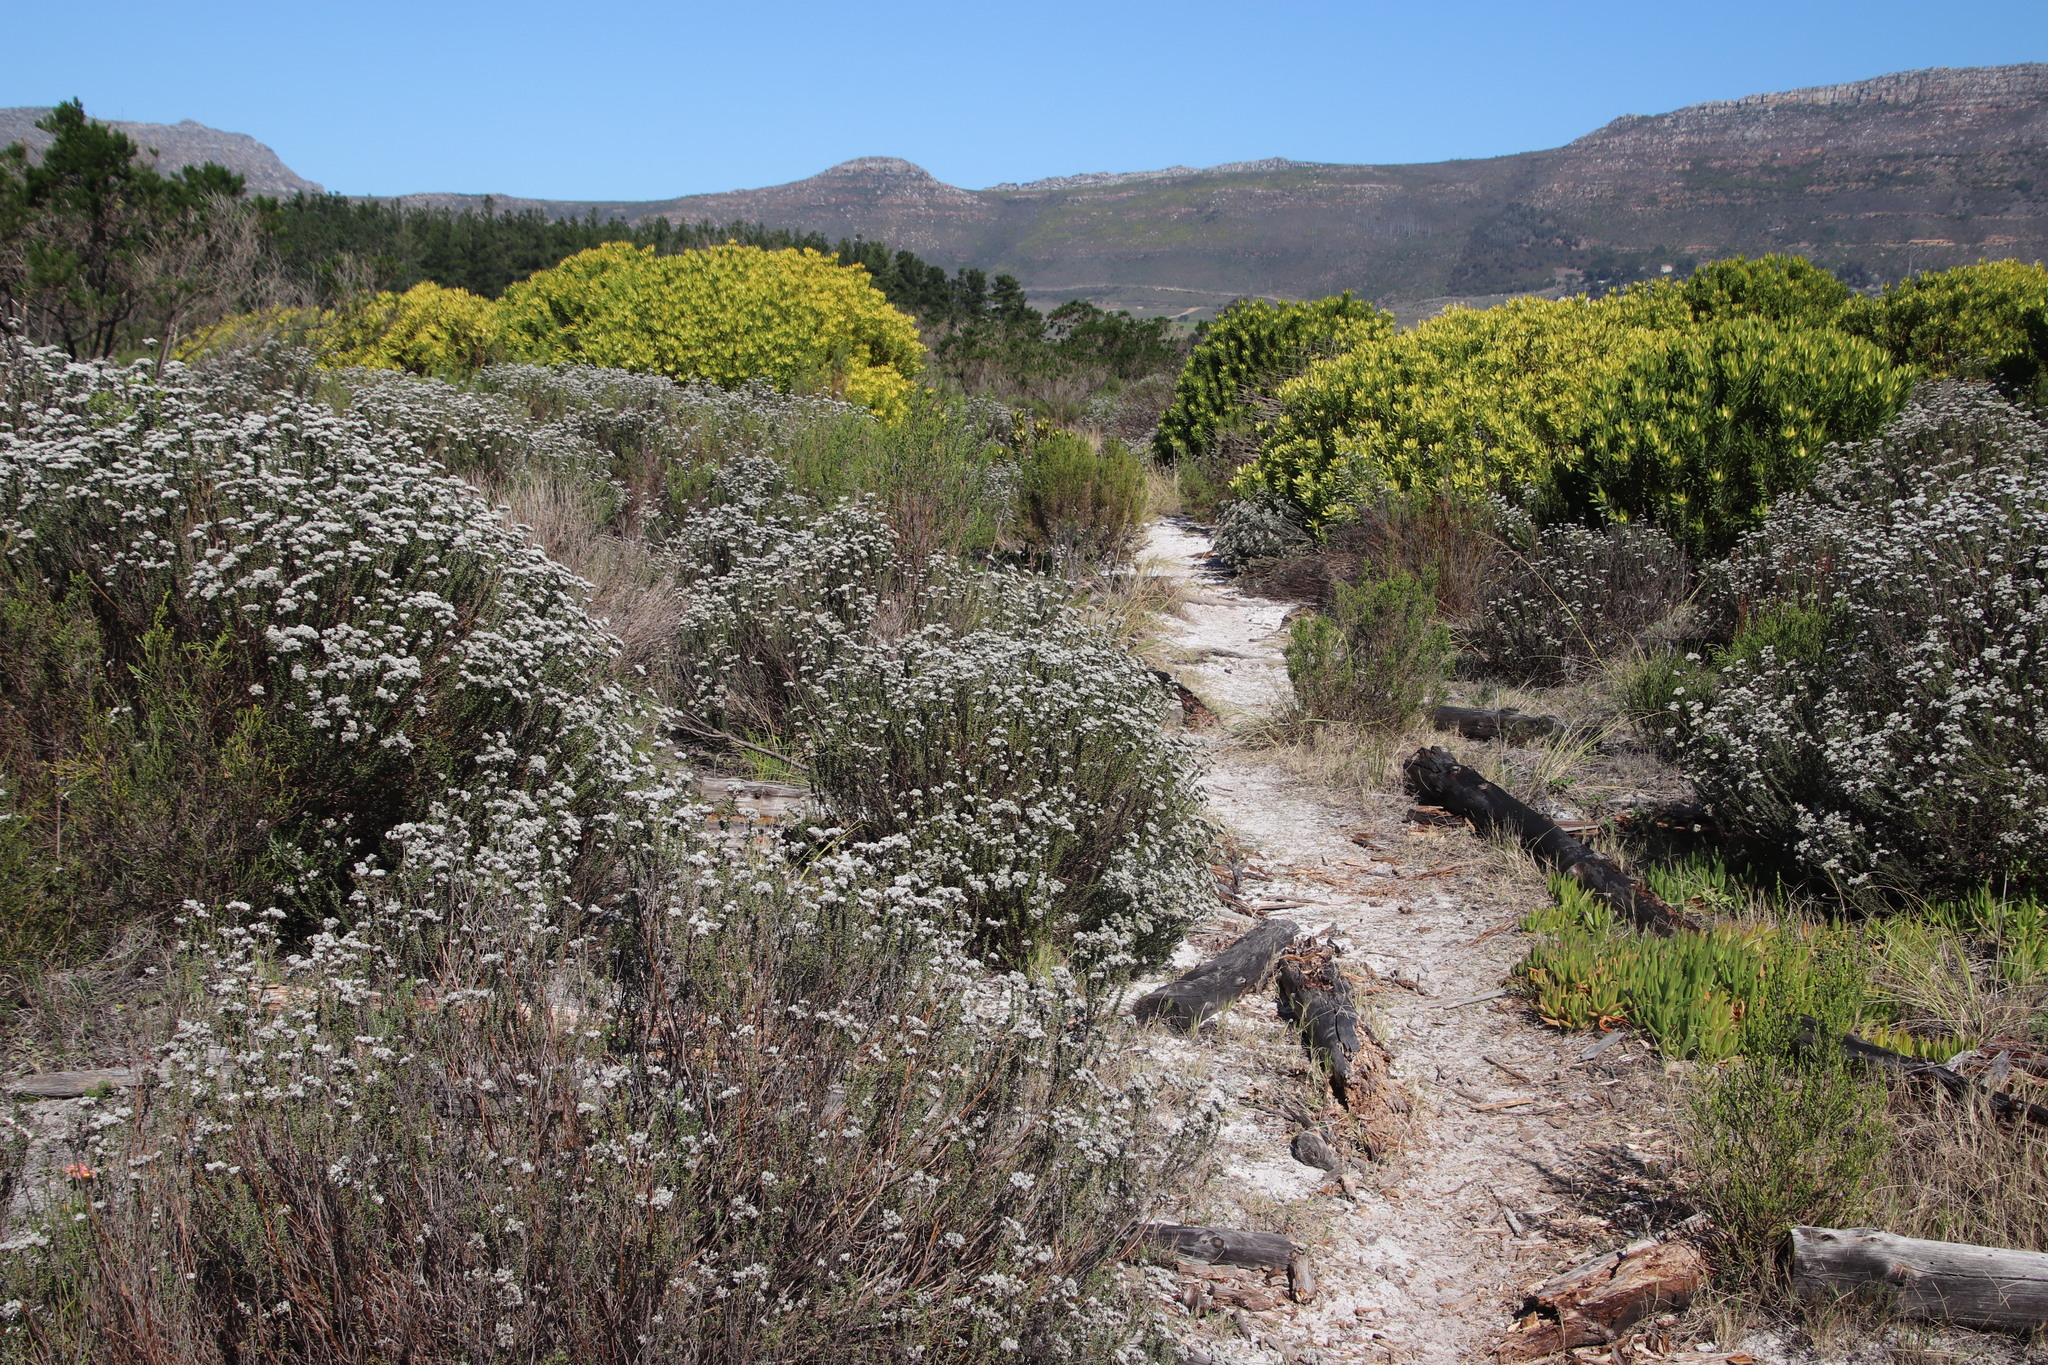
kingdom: Plantae
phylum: Tracheophyta
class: Magnoliopsida
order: Asterales
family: Asteraceae
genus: Metalasia
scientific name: Metalasia densa
